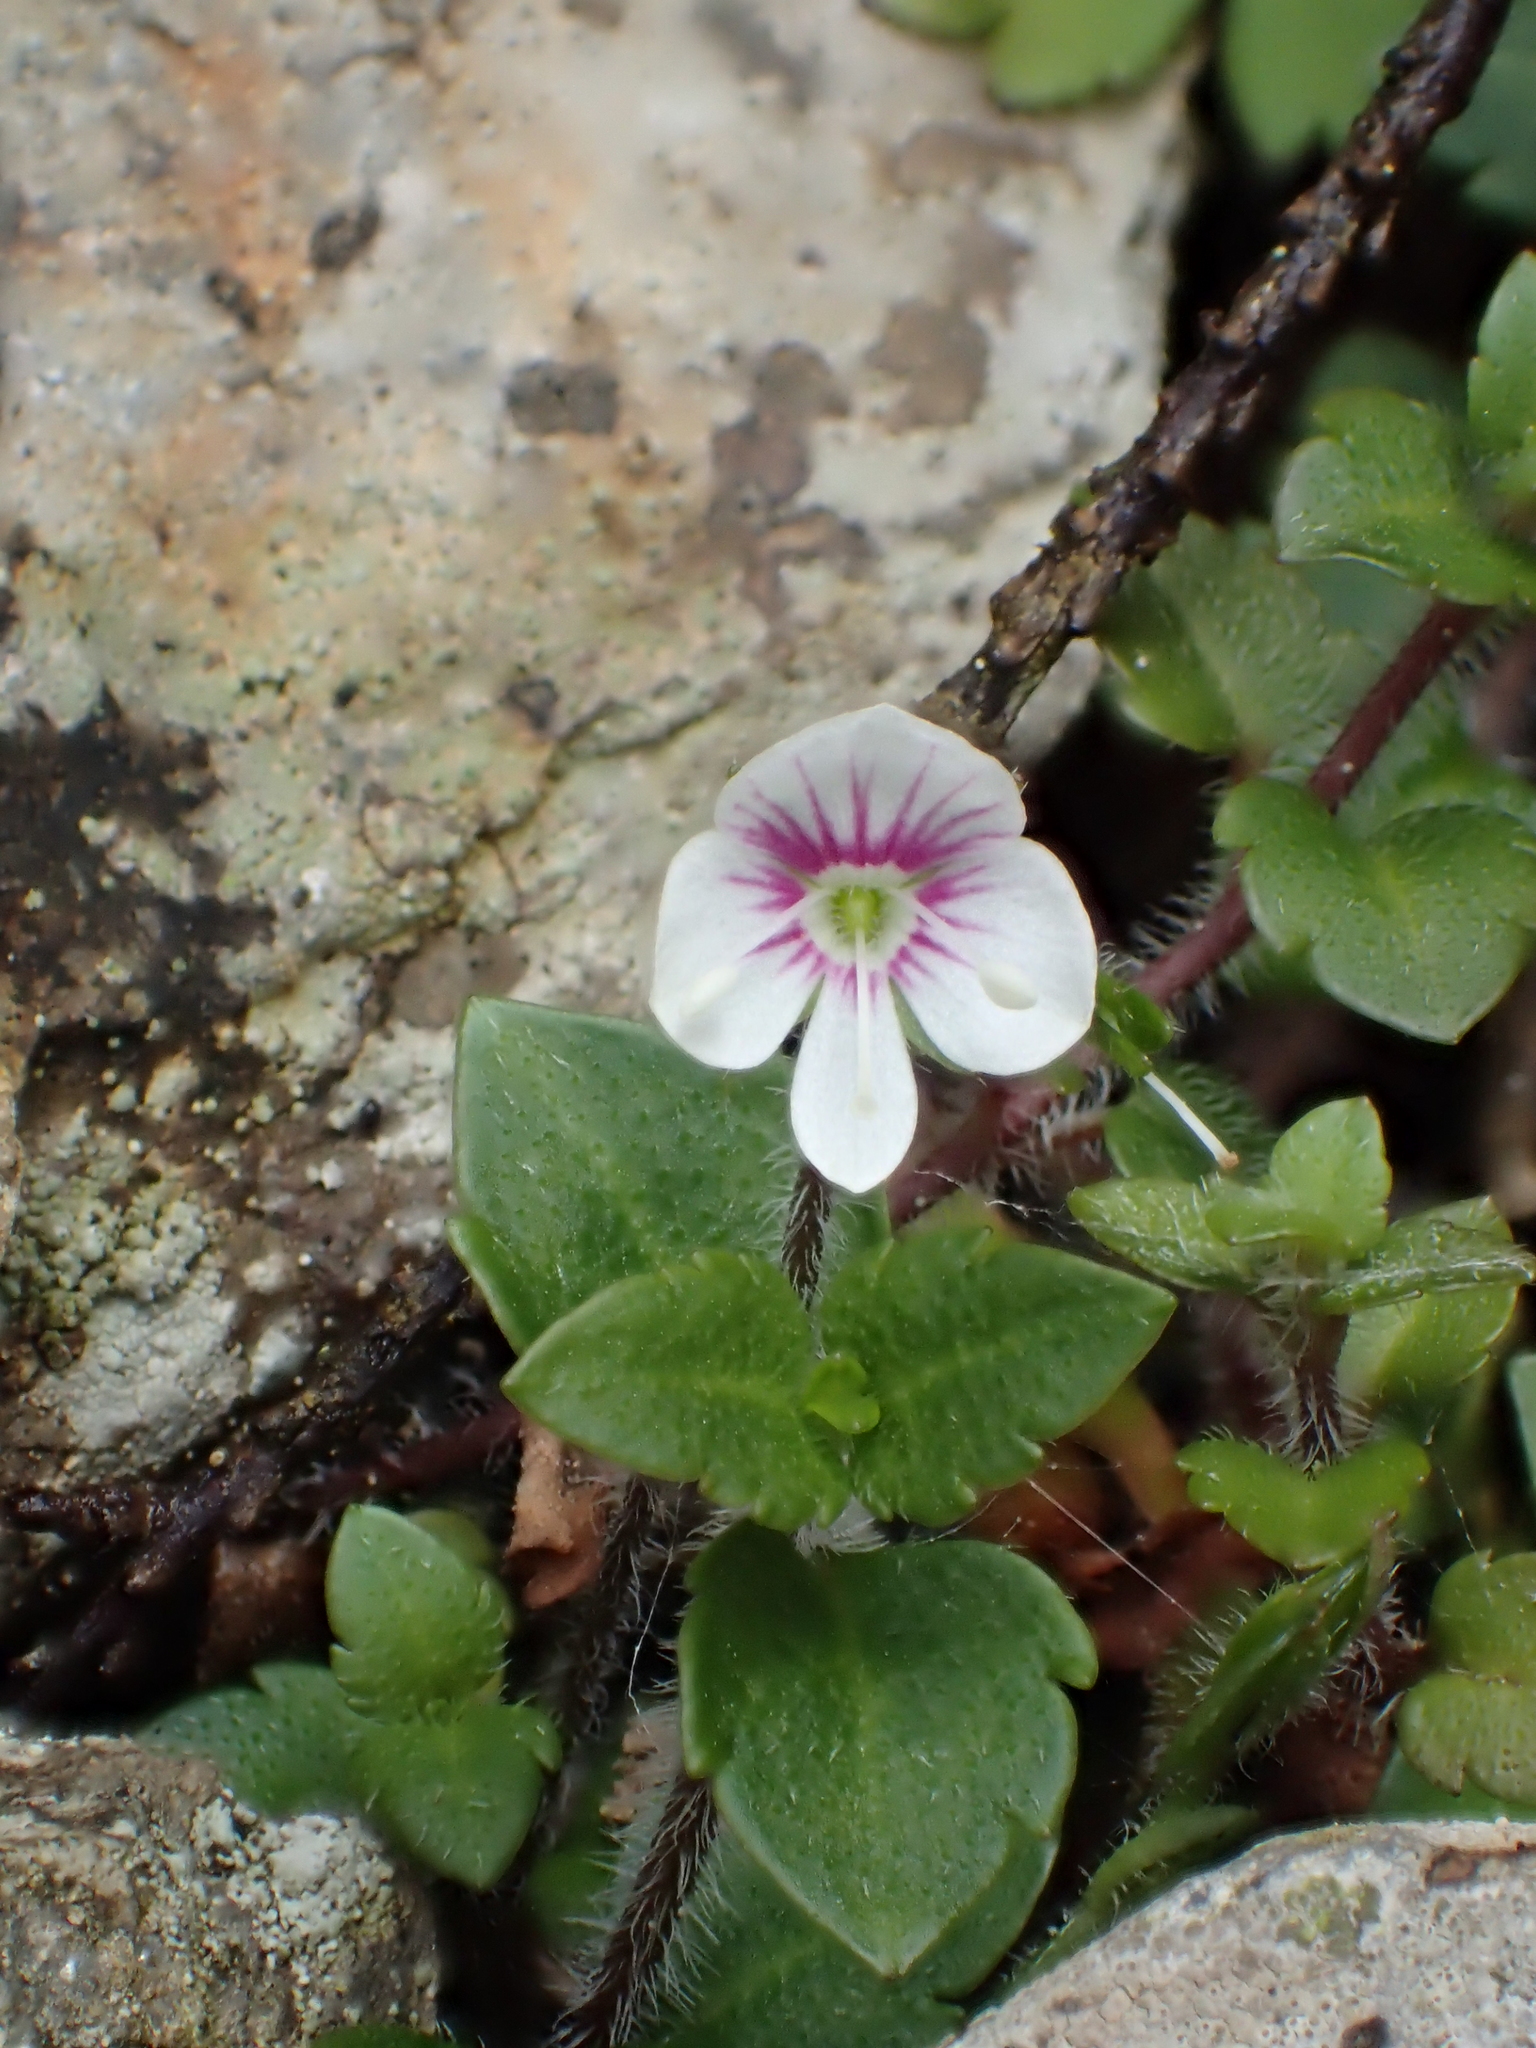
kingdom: Plantae
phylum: Tracheophyta
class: Magnoliopsida
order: Lamiales
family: Plantaginaceae
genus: Veronica
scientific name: Veronica oligosperma
